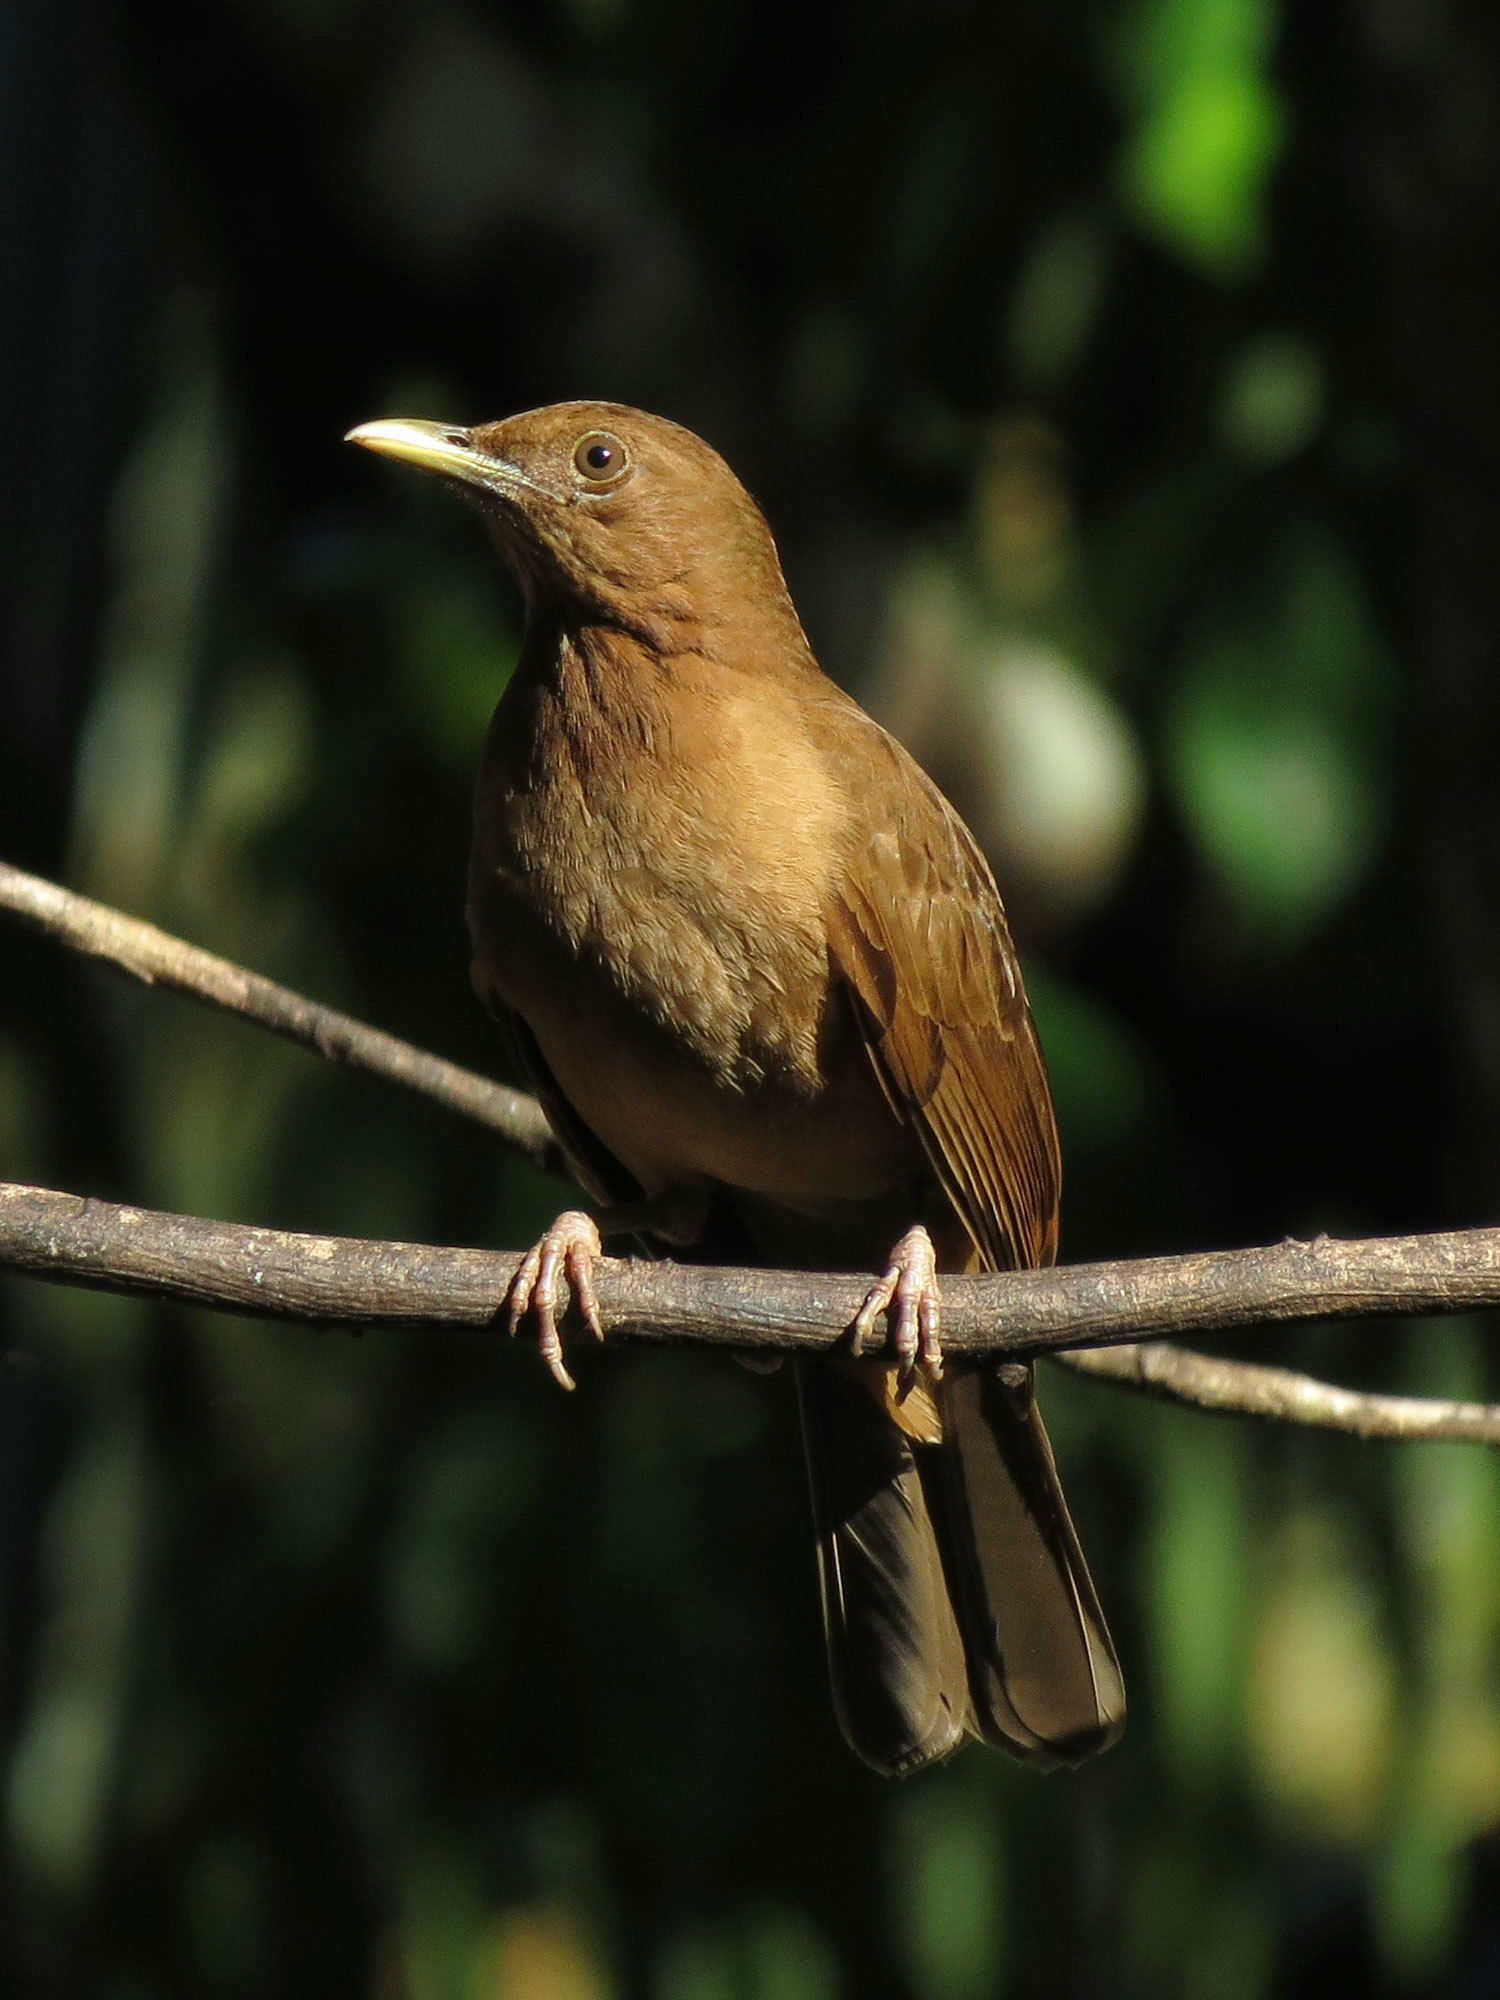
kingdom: Animalia
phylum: Chordata
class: Aves
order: Passeriformes
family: Turdidae
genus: Turdus
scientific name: Turdus grayi
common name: Clay-colored thrush
